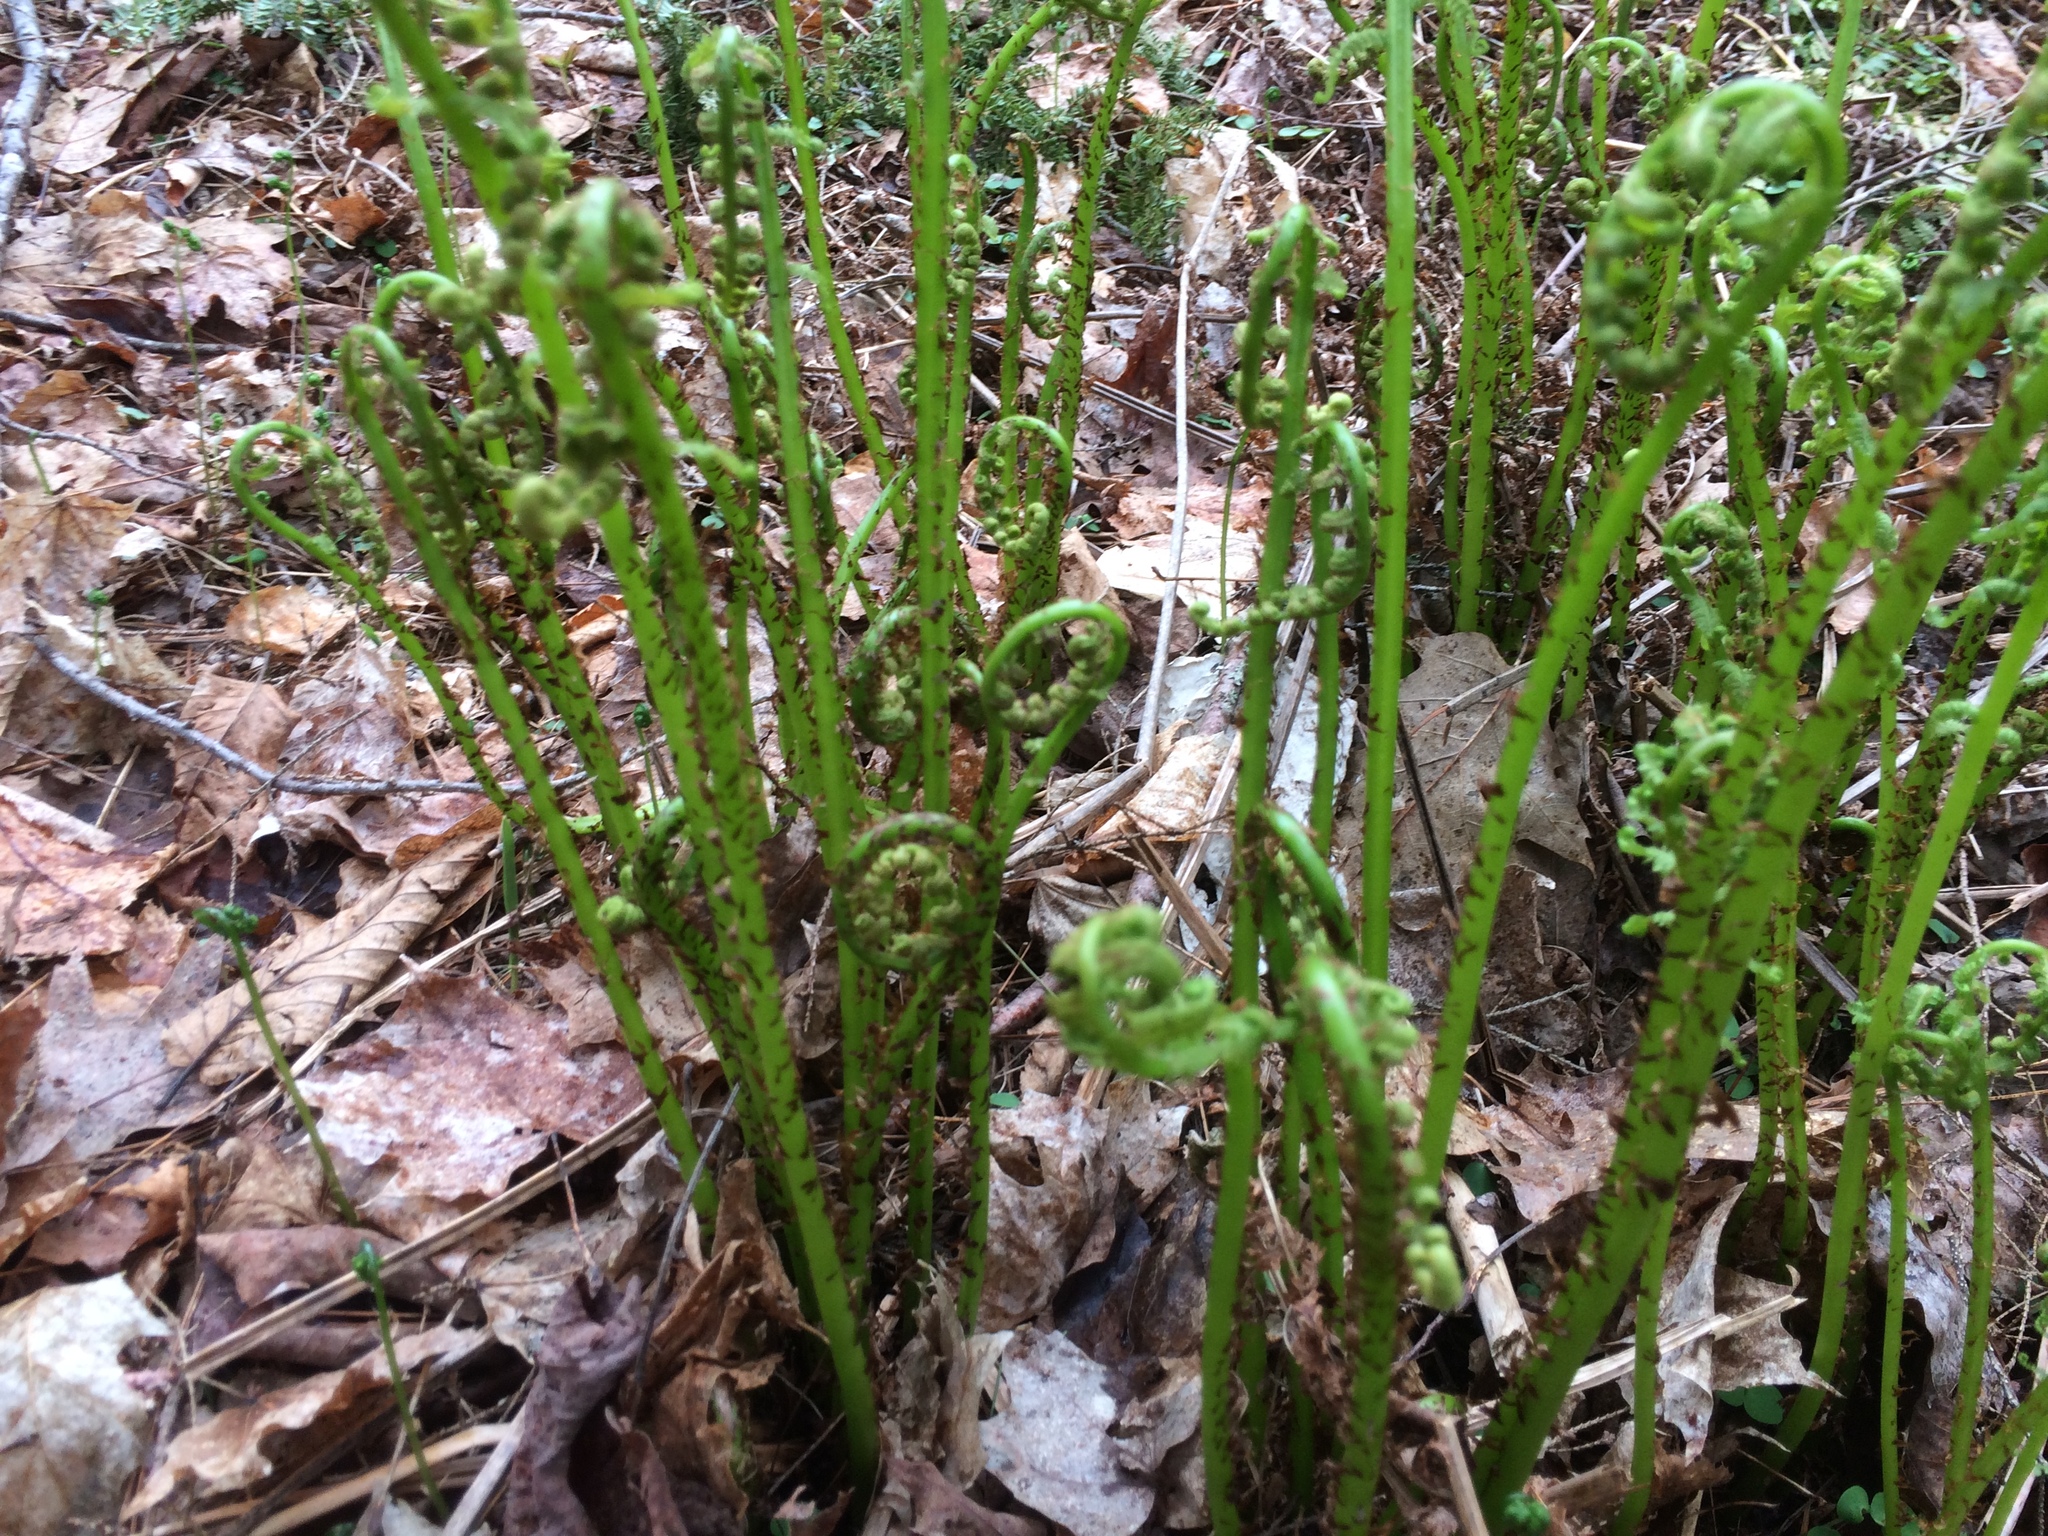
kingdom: Plantae
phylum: Tracheophyta
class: Polypodiopsida
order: Polypodiales
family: Athyriaceae
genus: Athyrium
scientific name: Athyrium angustum
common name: Northern lady fern
